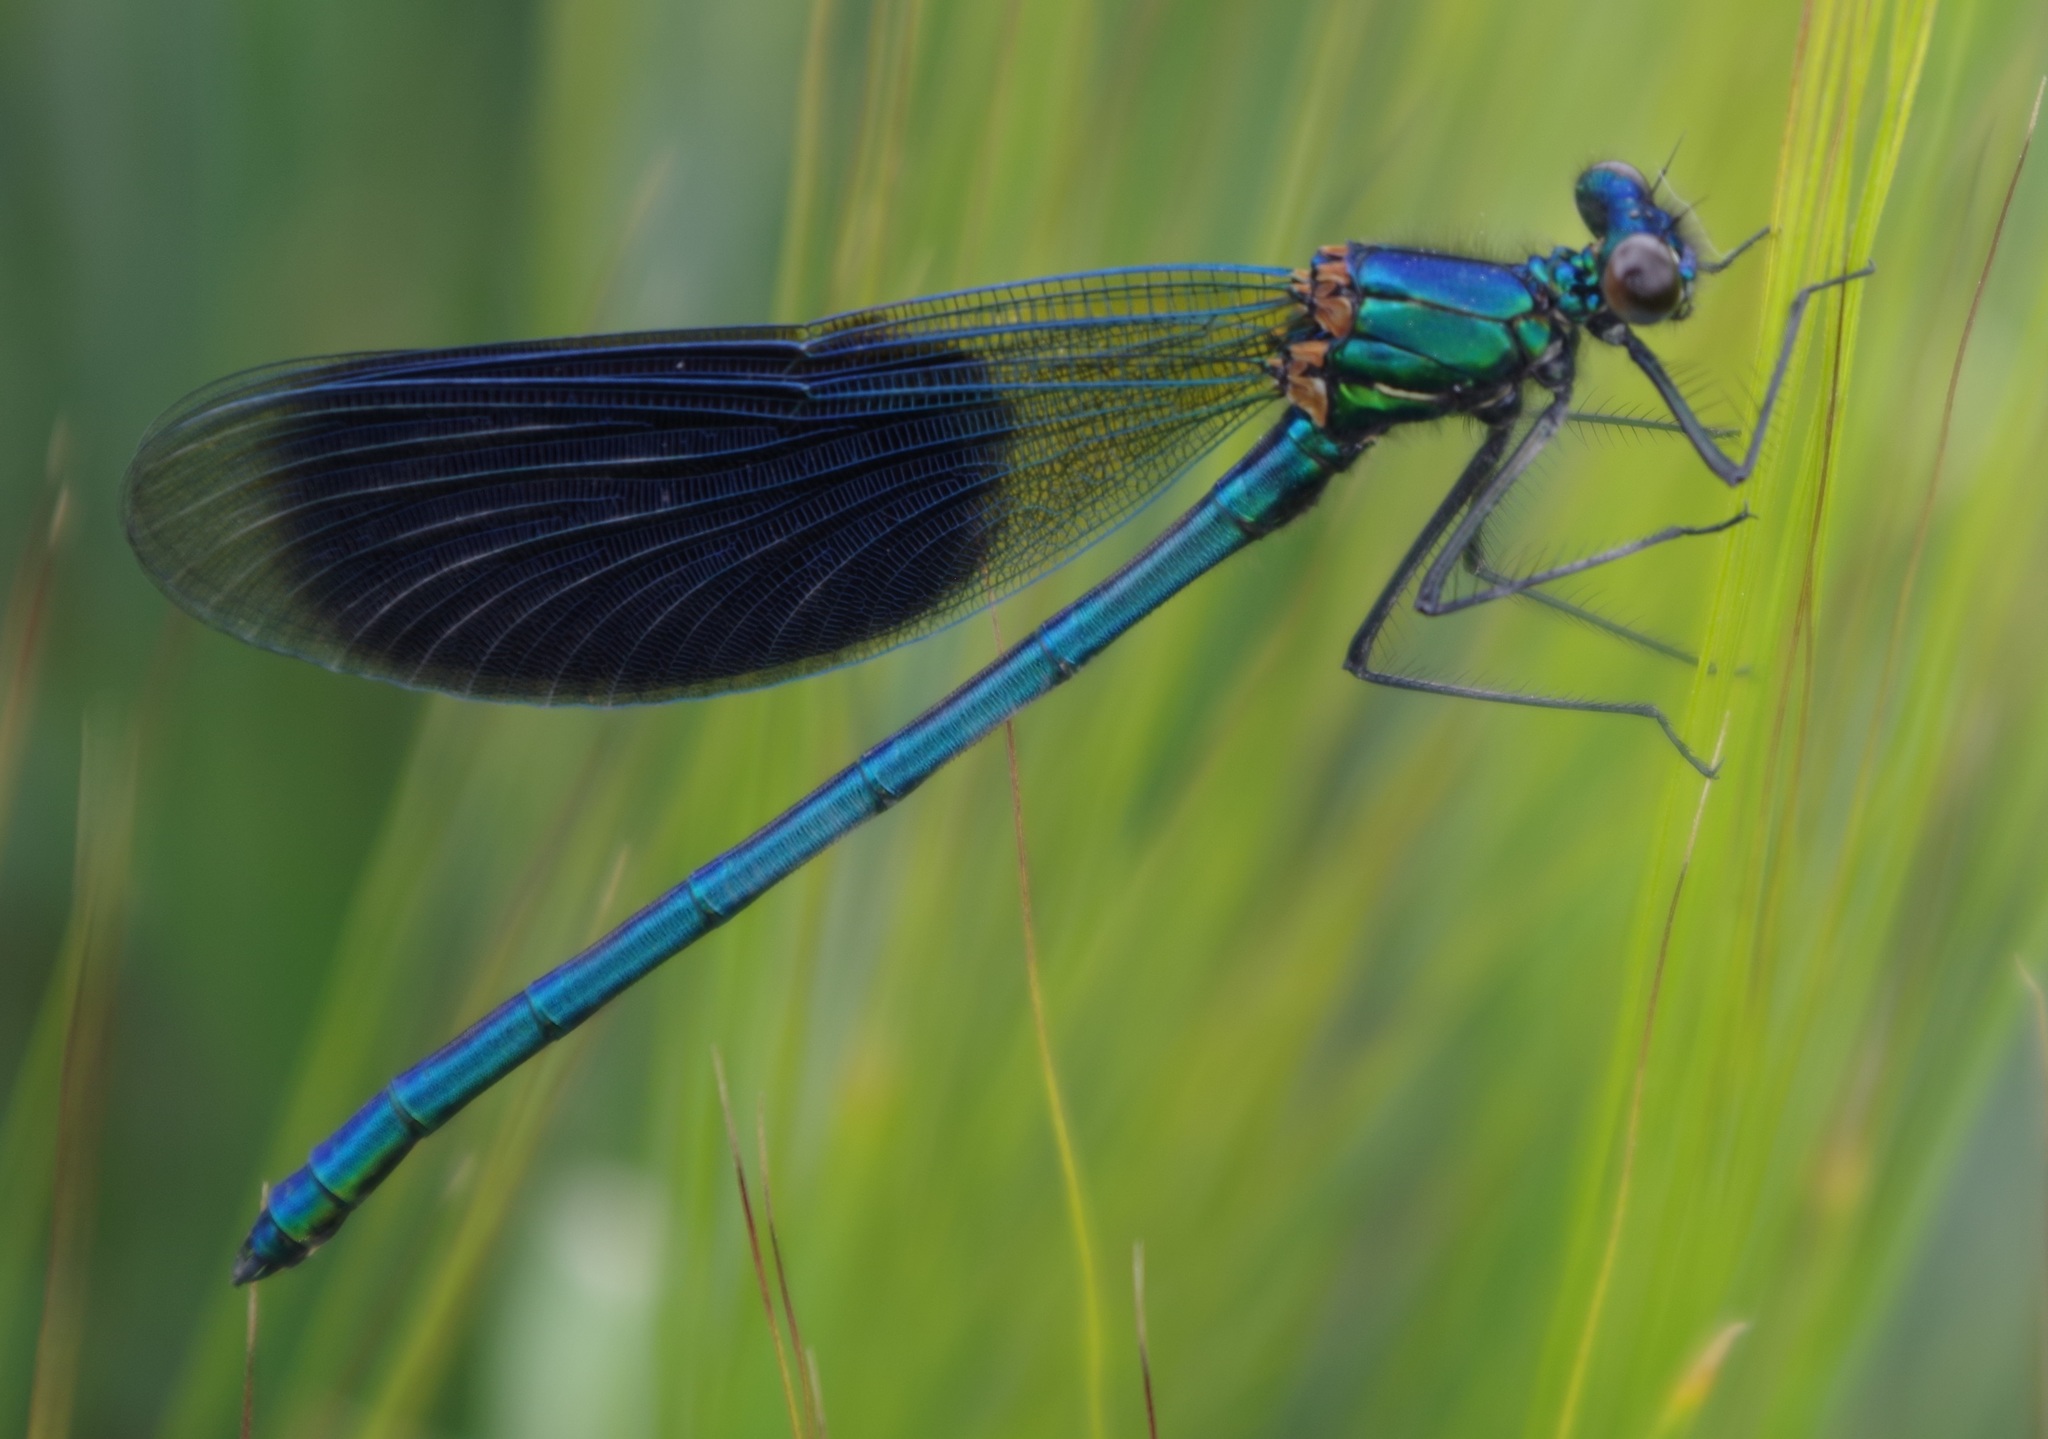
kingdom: Animalia
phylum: Arthropoda
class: Insecta
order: Odonata
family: Calopterygidae
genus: Calopteryx
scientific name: Calopteryx splendens
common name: Banded demoiselle
